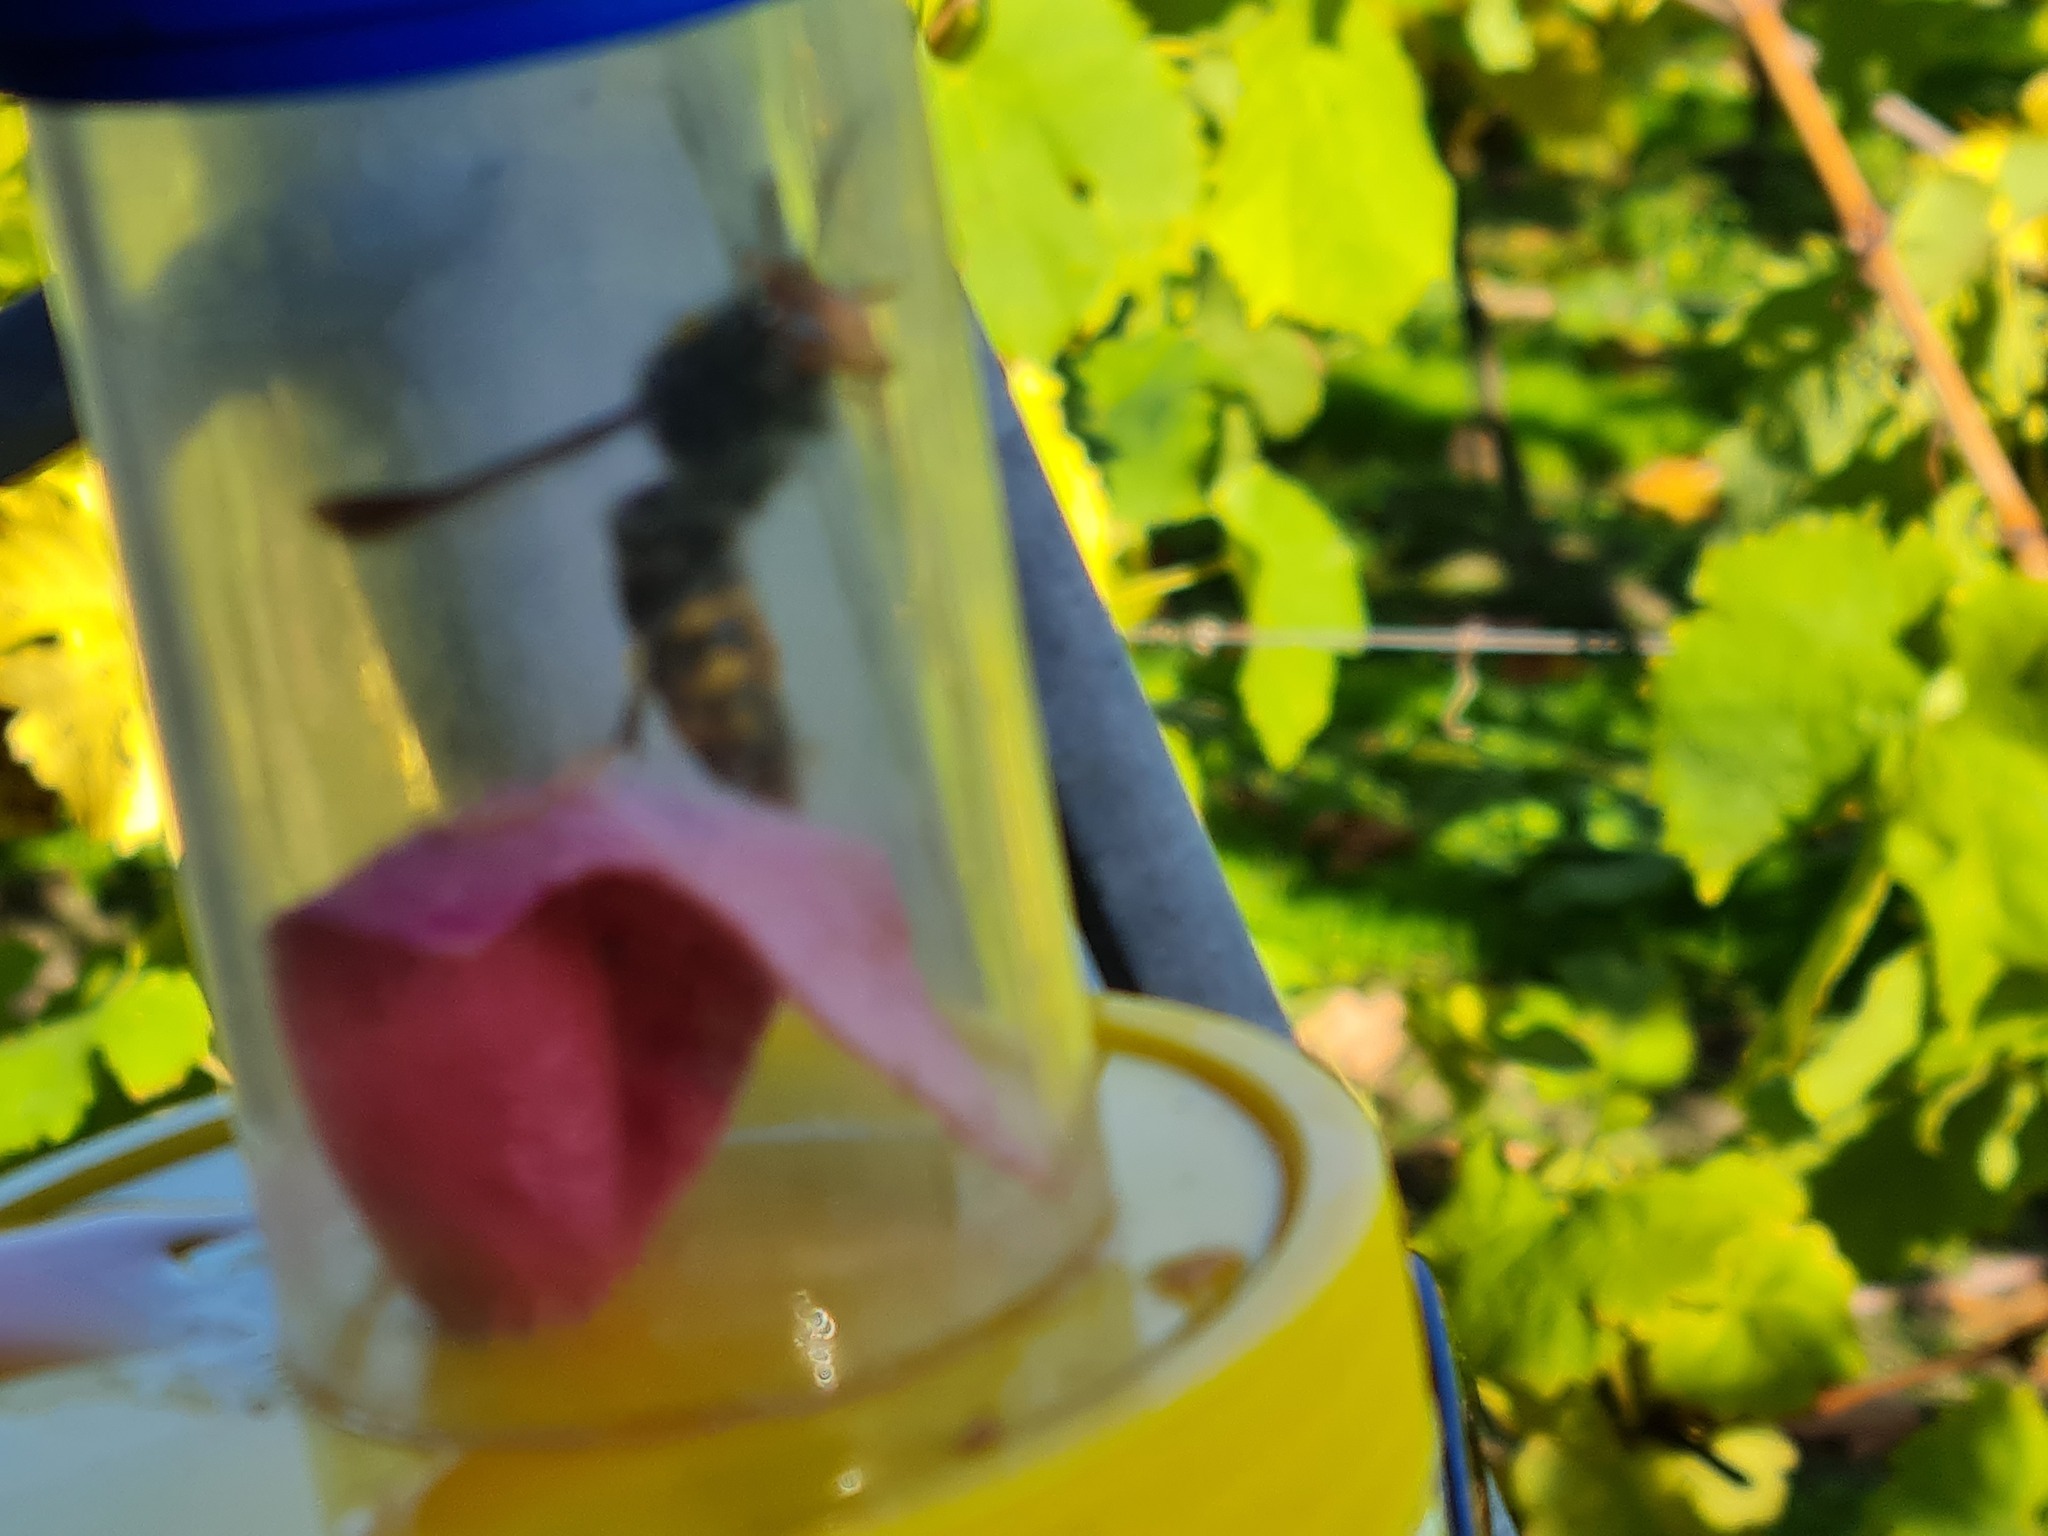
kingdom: Animalia
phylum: Arthropoda
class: Insecta
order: Hymenoptera
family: Vespidae
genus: Vespa
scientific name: Vespa velutina
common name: Asian hornet
